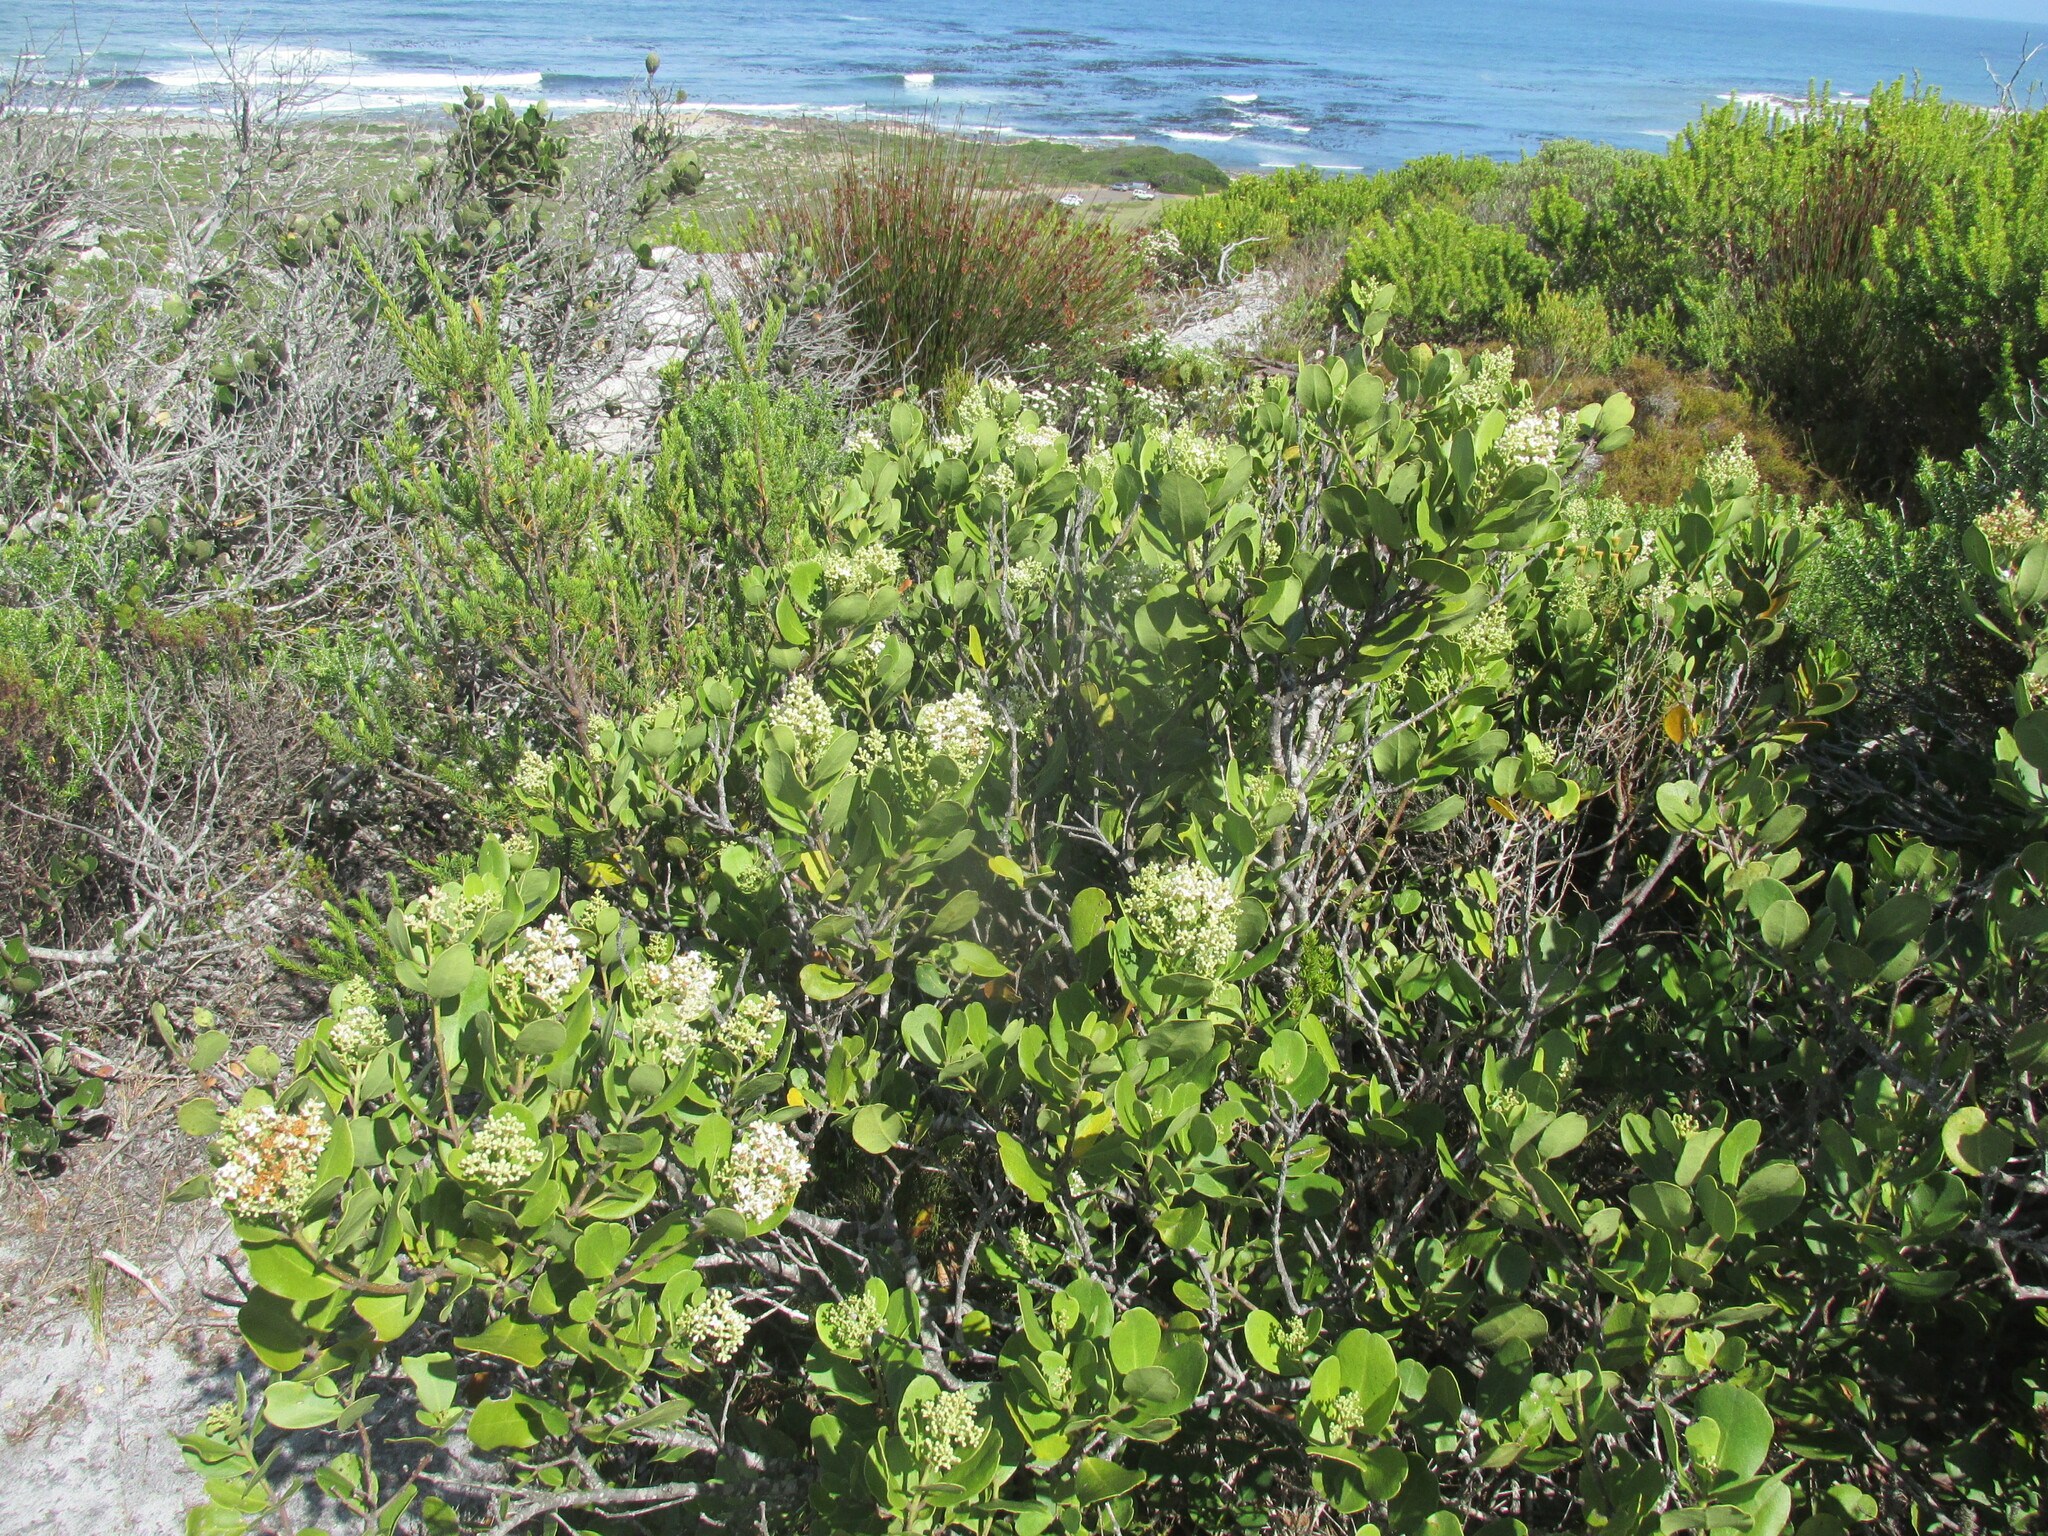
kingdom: Plantae
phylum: Tracheophyta
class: Magnoliopsida
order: Lamiales
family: Oleaceae
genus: Olea
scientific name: Olea capensis
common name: Black ironwood
